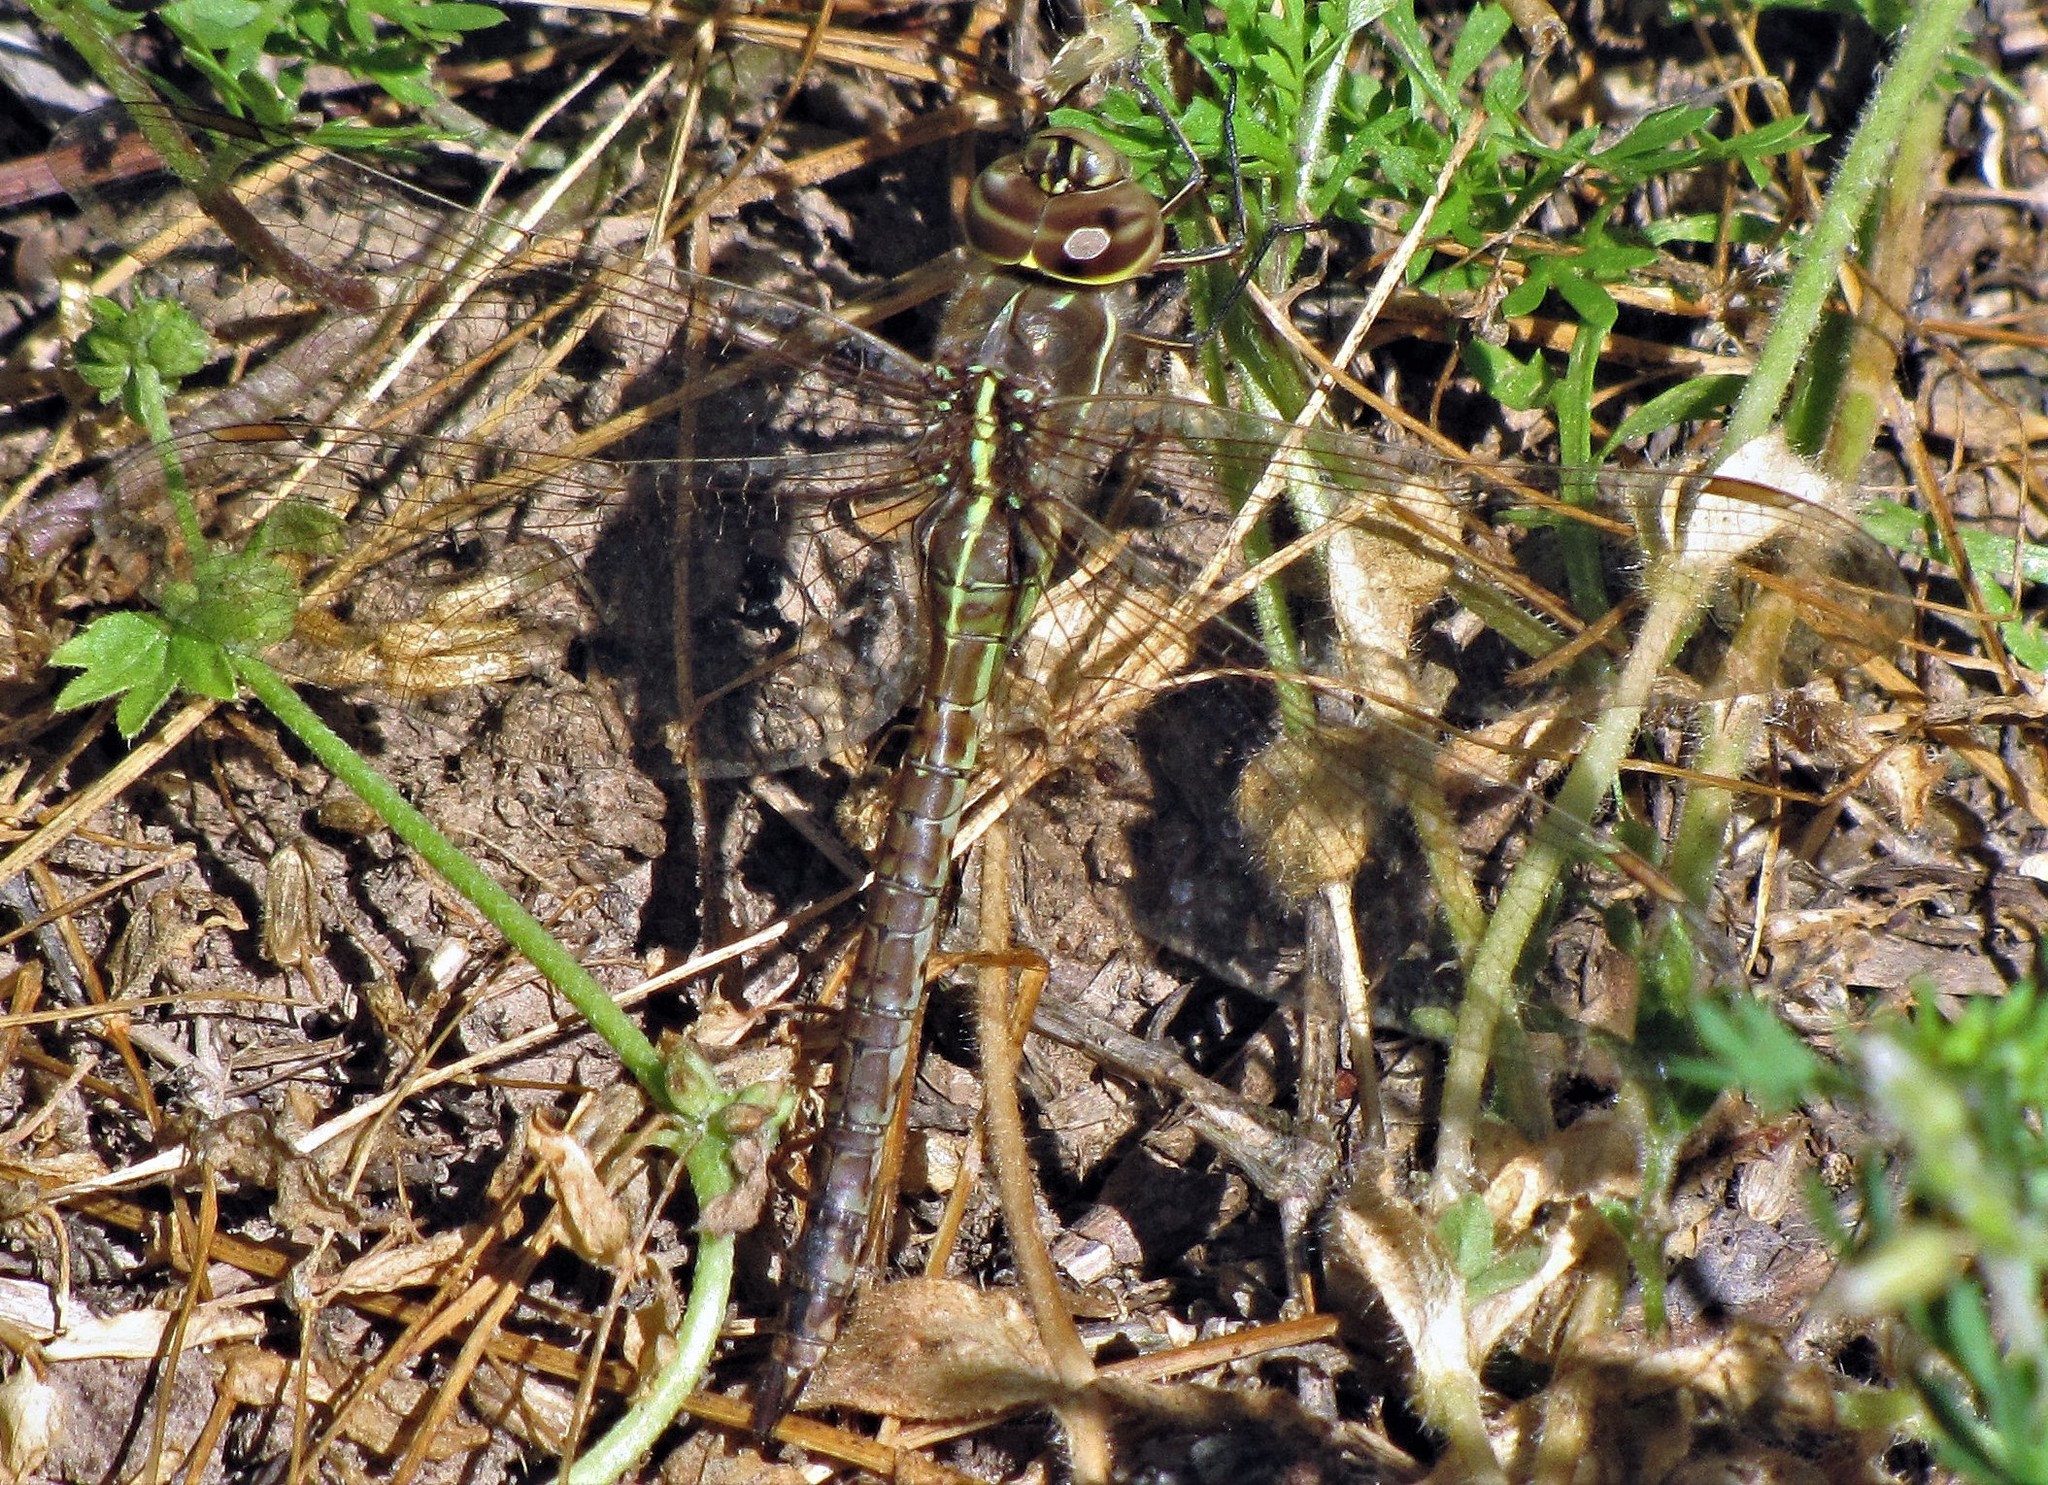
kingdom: Animalia
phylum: Arthropoda
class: Insecta
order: Odonata
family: Aeshnidae
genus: Rhionaeschna
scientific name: Rhionaeschna confusa
